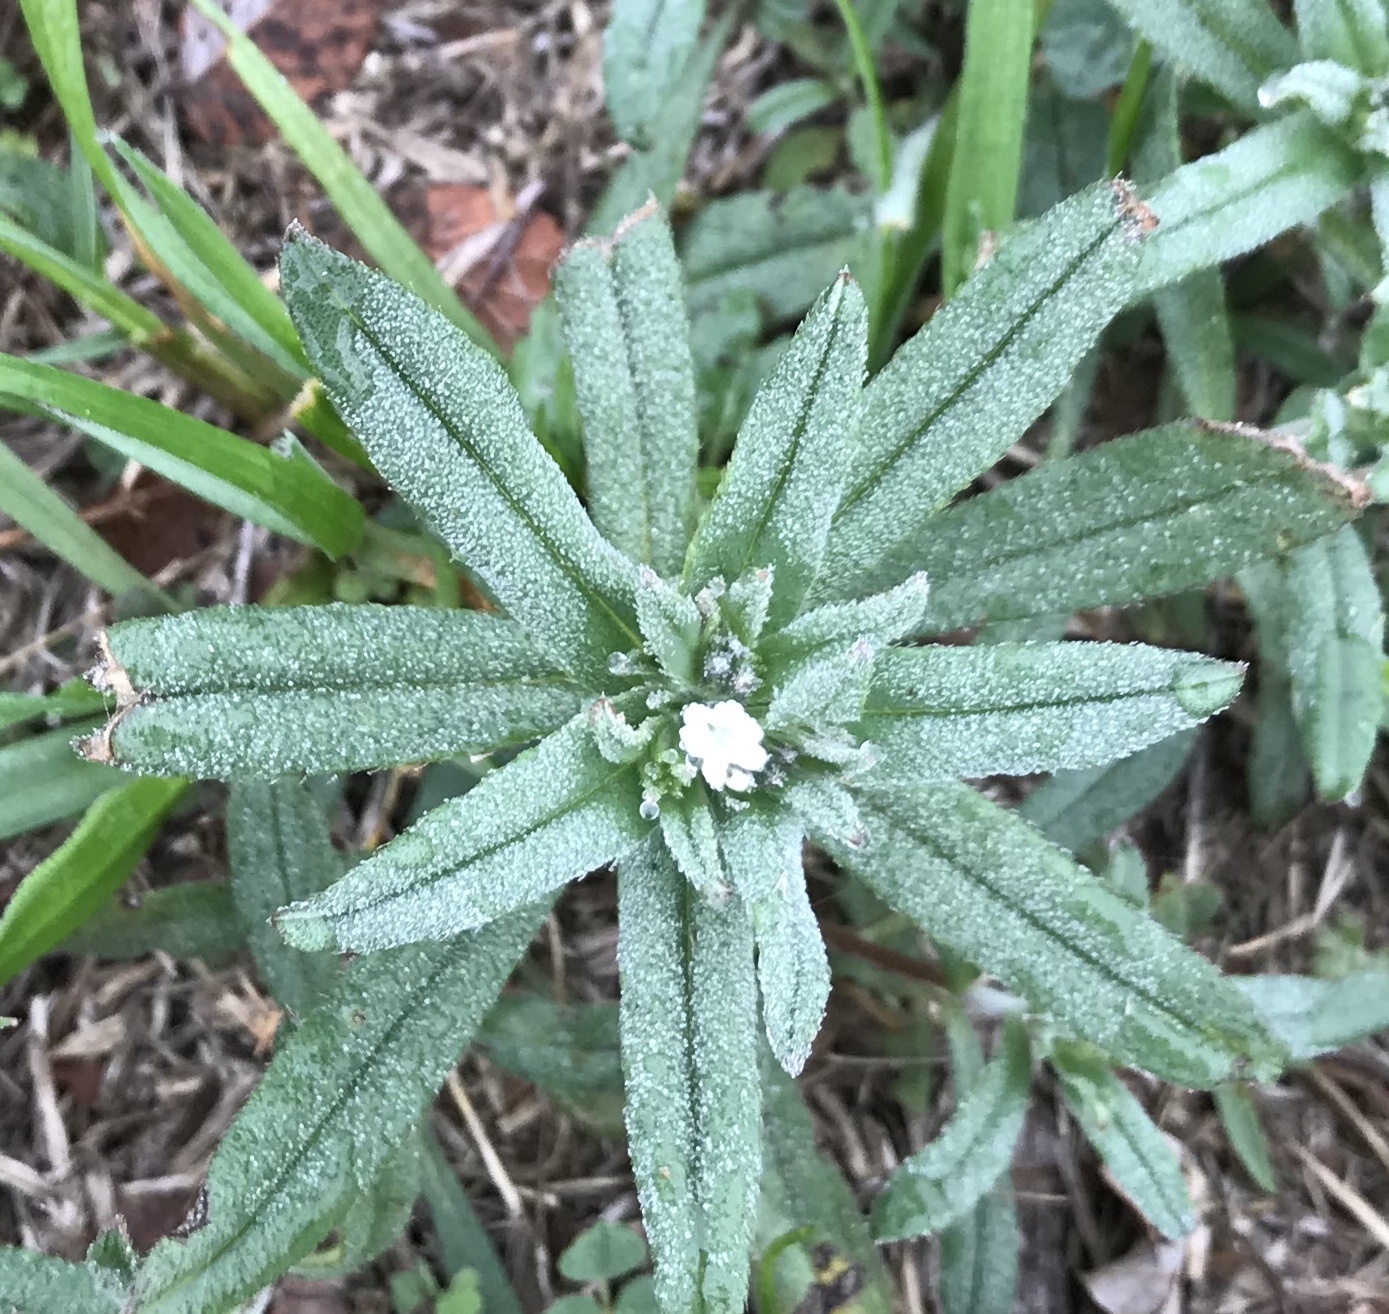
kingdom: Plantae
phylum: Tracheophyta
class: Magnoliopsida
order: Boraginales
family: Boraginaceae
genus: Buglossoides
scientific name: Buglossoides arvensis
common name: Corn gromwell
